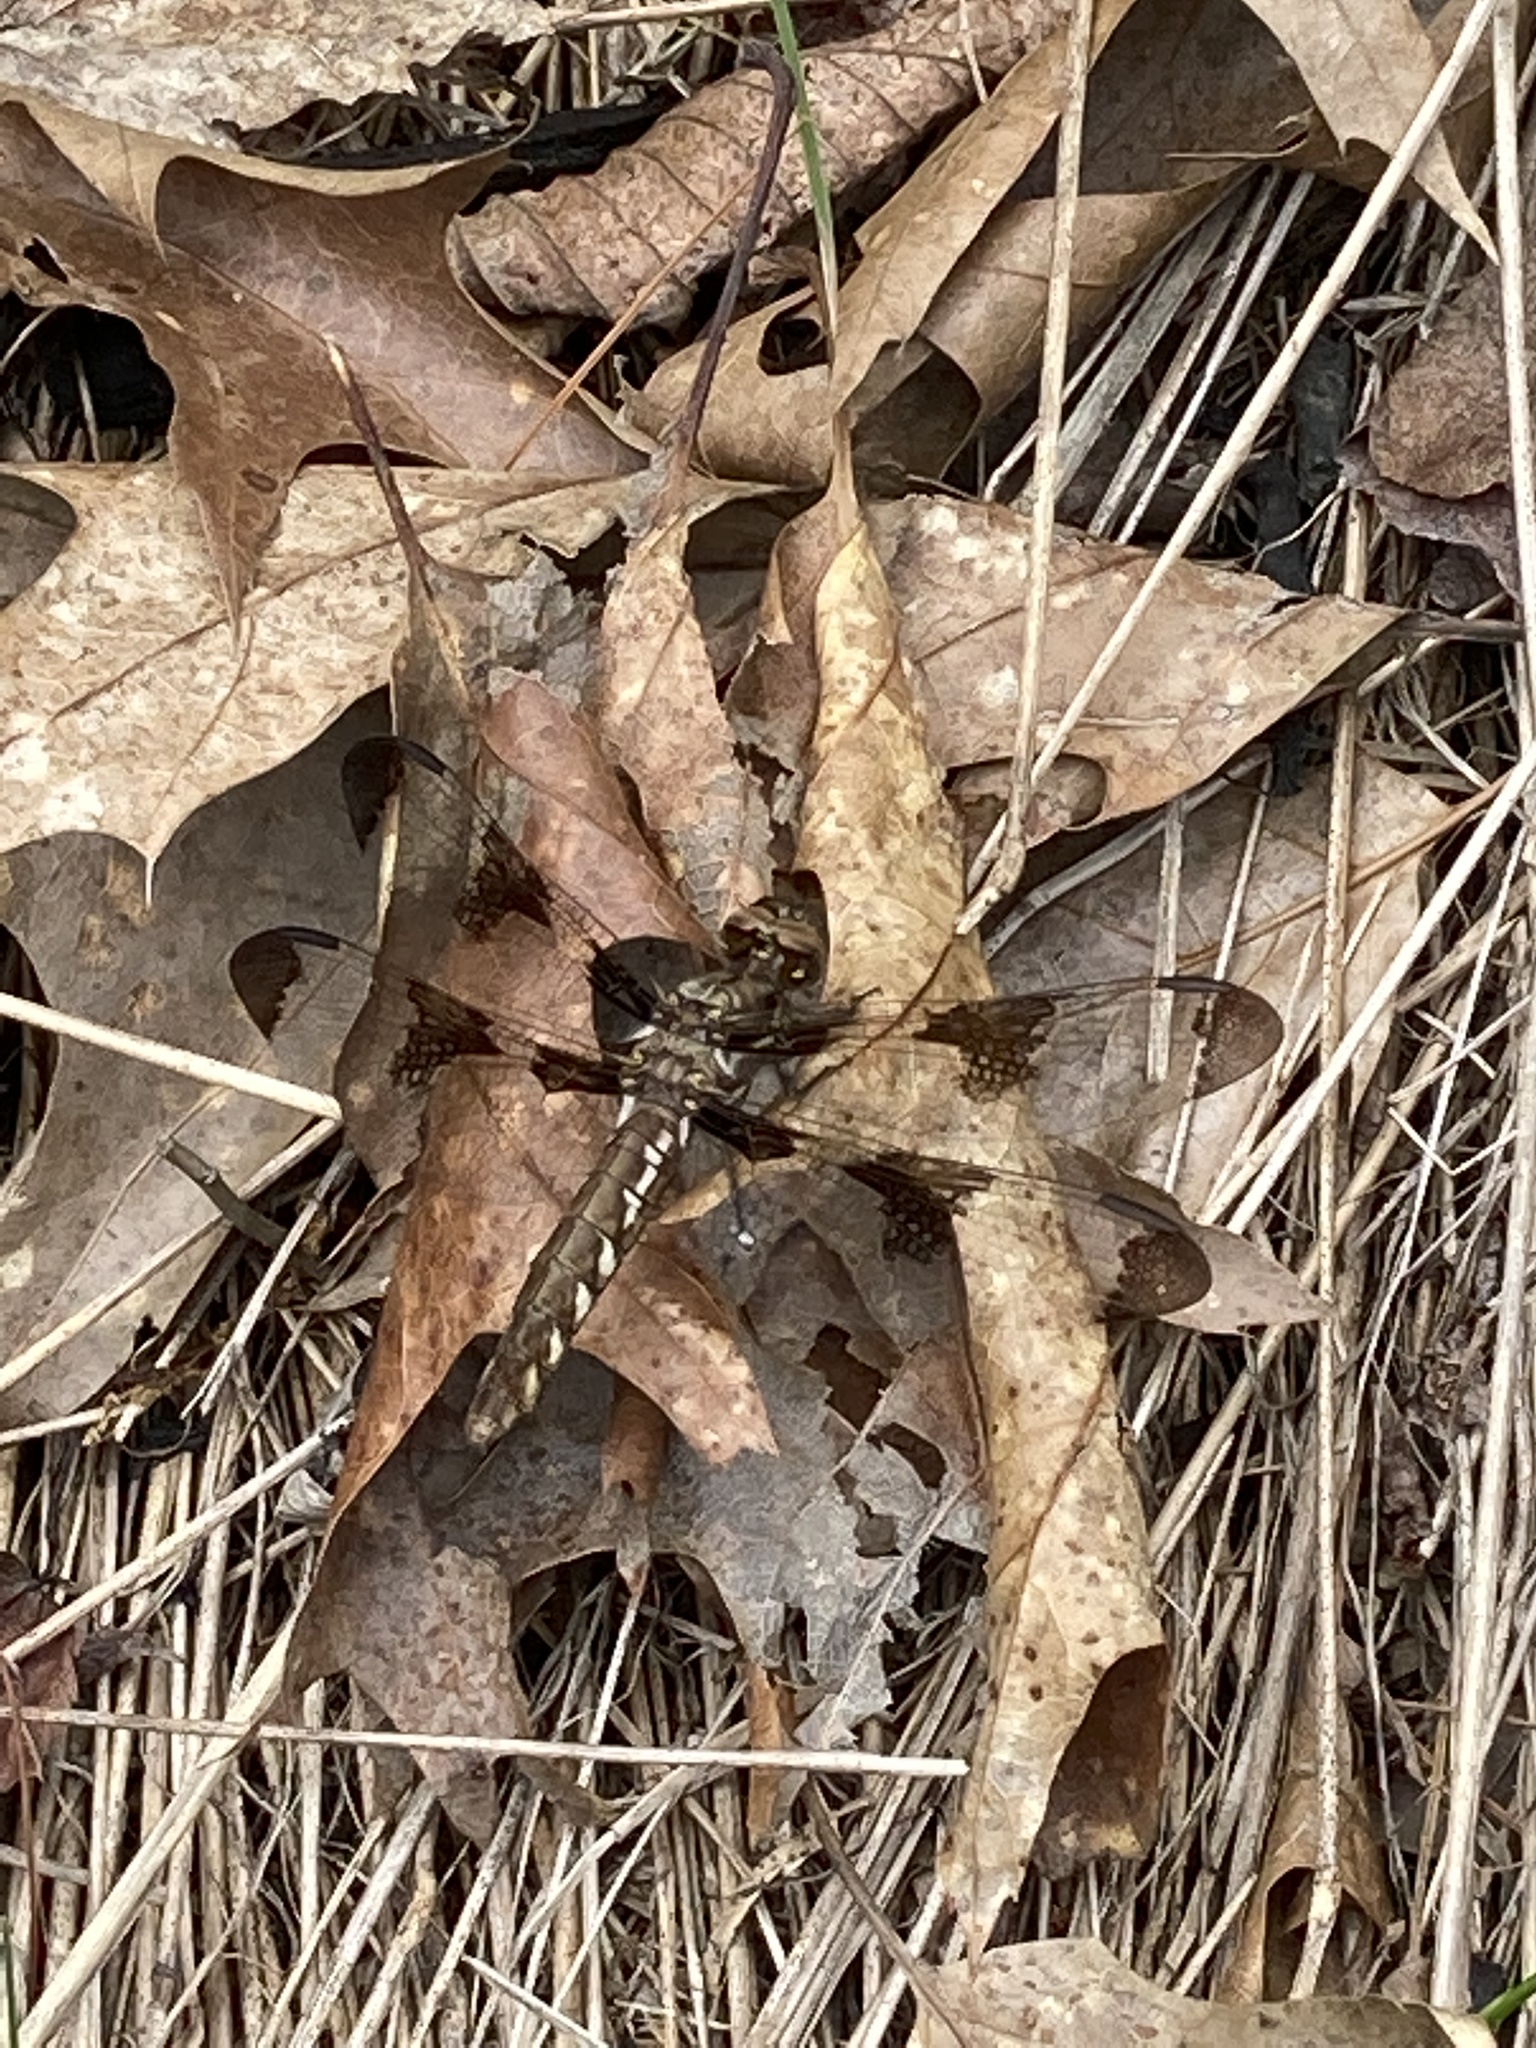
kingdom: Animalia
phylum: Arthropoda
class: Insecta
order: Odonata
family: Libellulidae
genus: Plathemis
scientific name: Plathemis lydia
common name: Common whitetail
